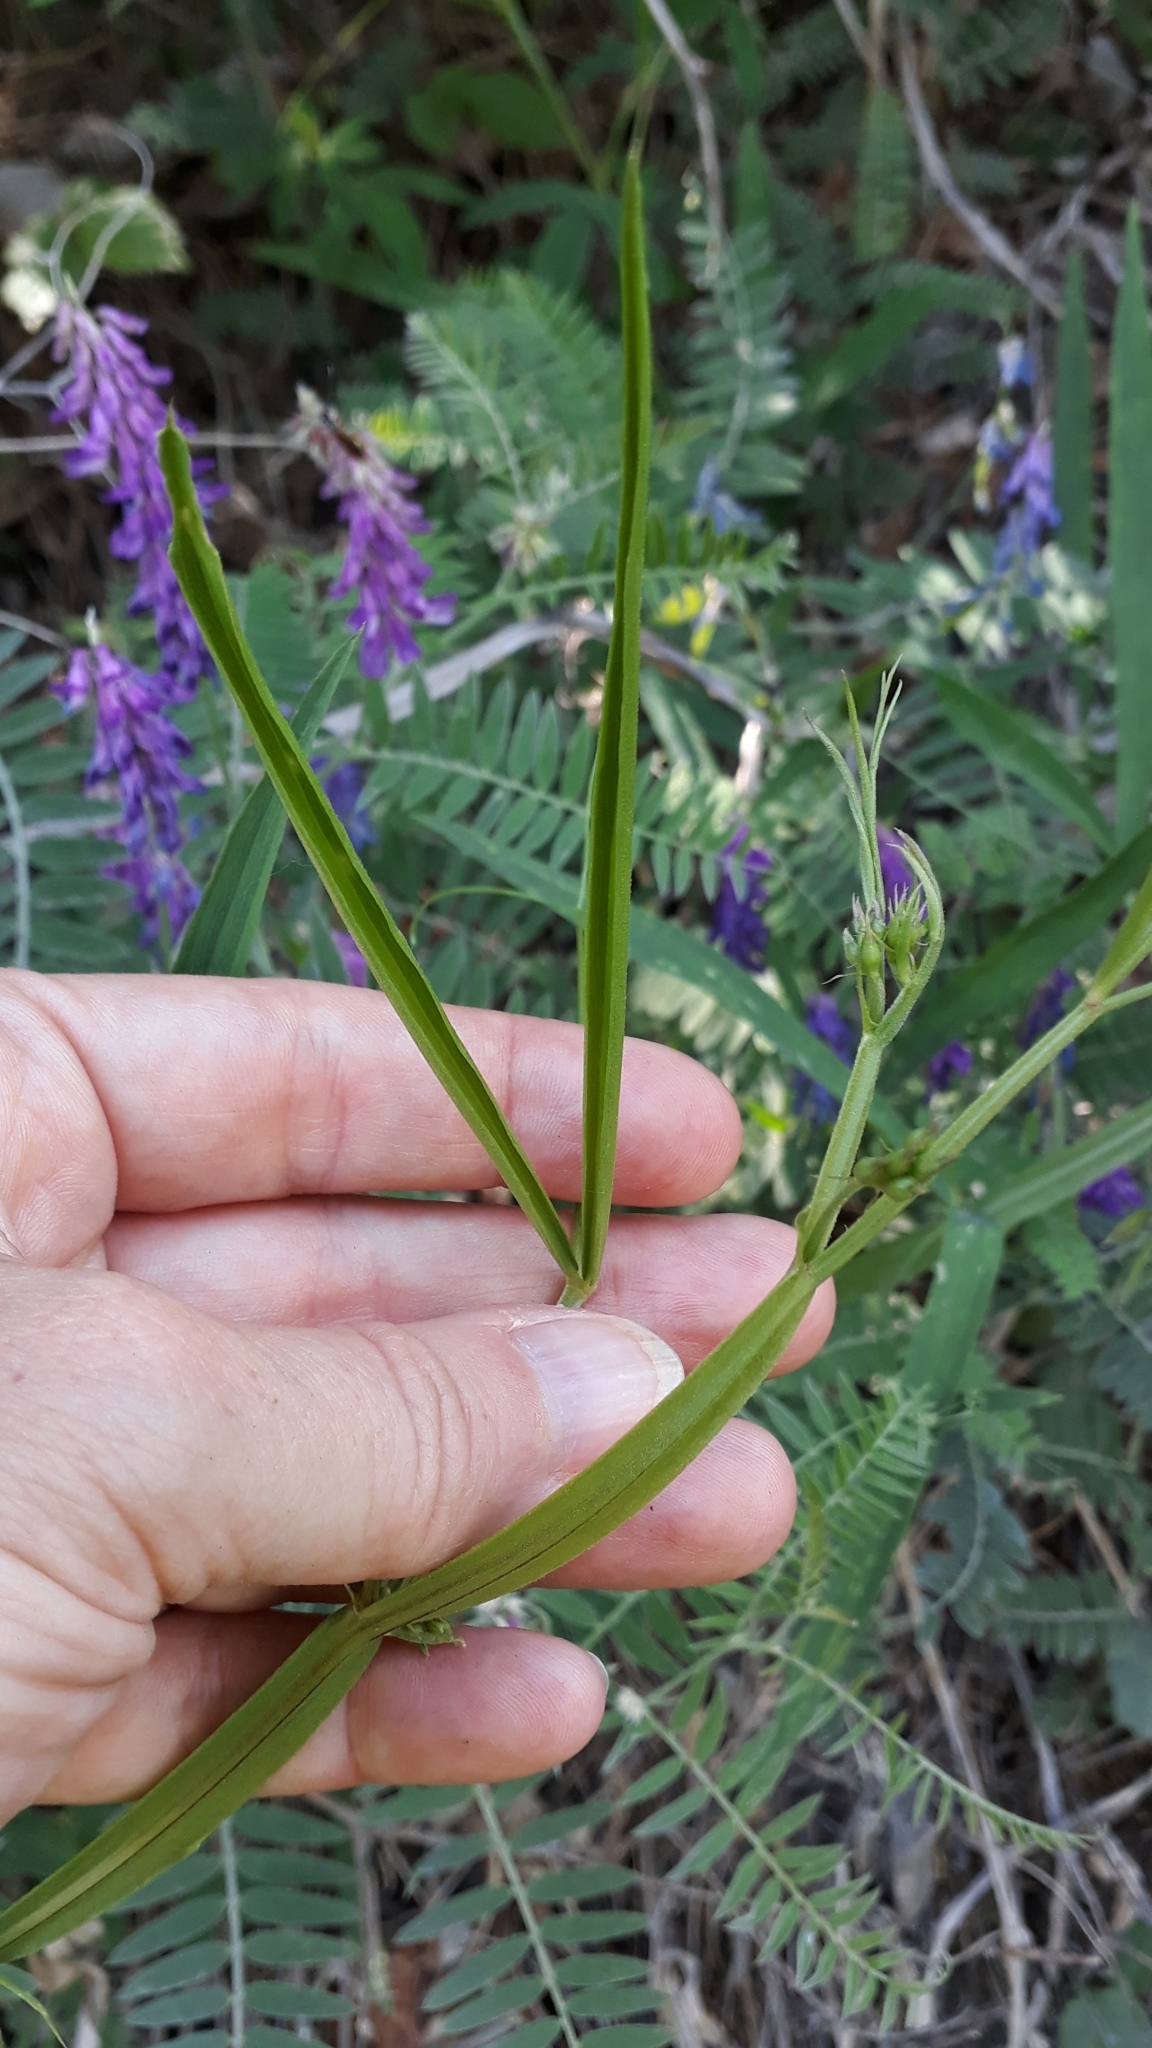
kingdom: Plantae
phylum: Tracheophyta
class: Magnoliopsida
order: Fabales
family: Fabaceae
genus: Lathyrus
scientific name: Lathyrus sylvestris
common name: Flat pea
